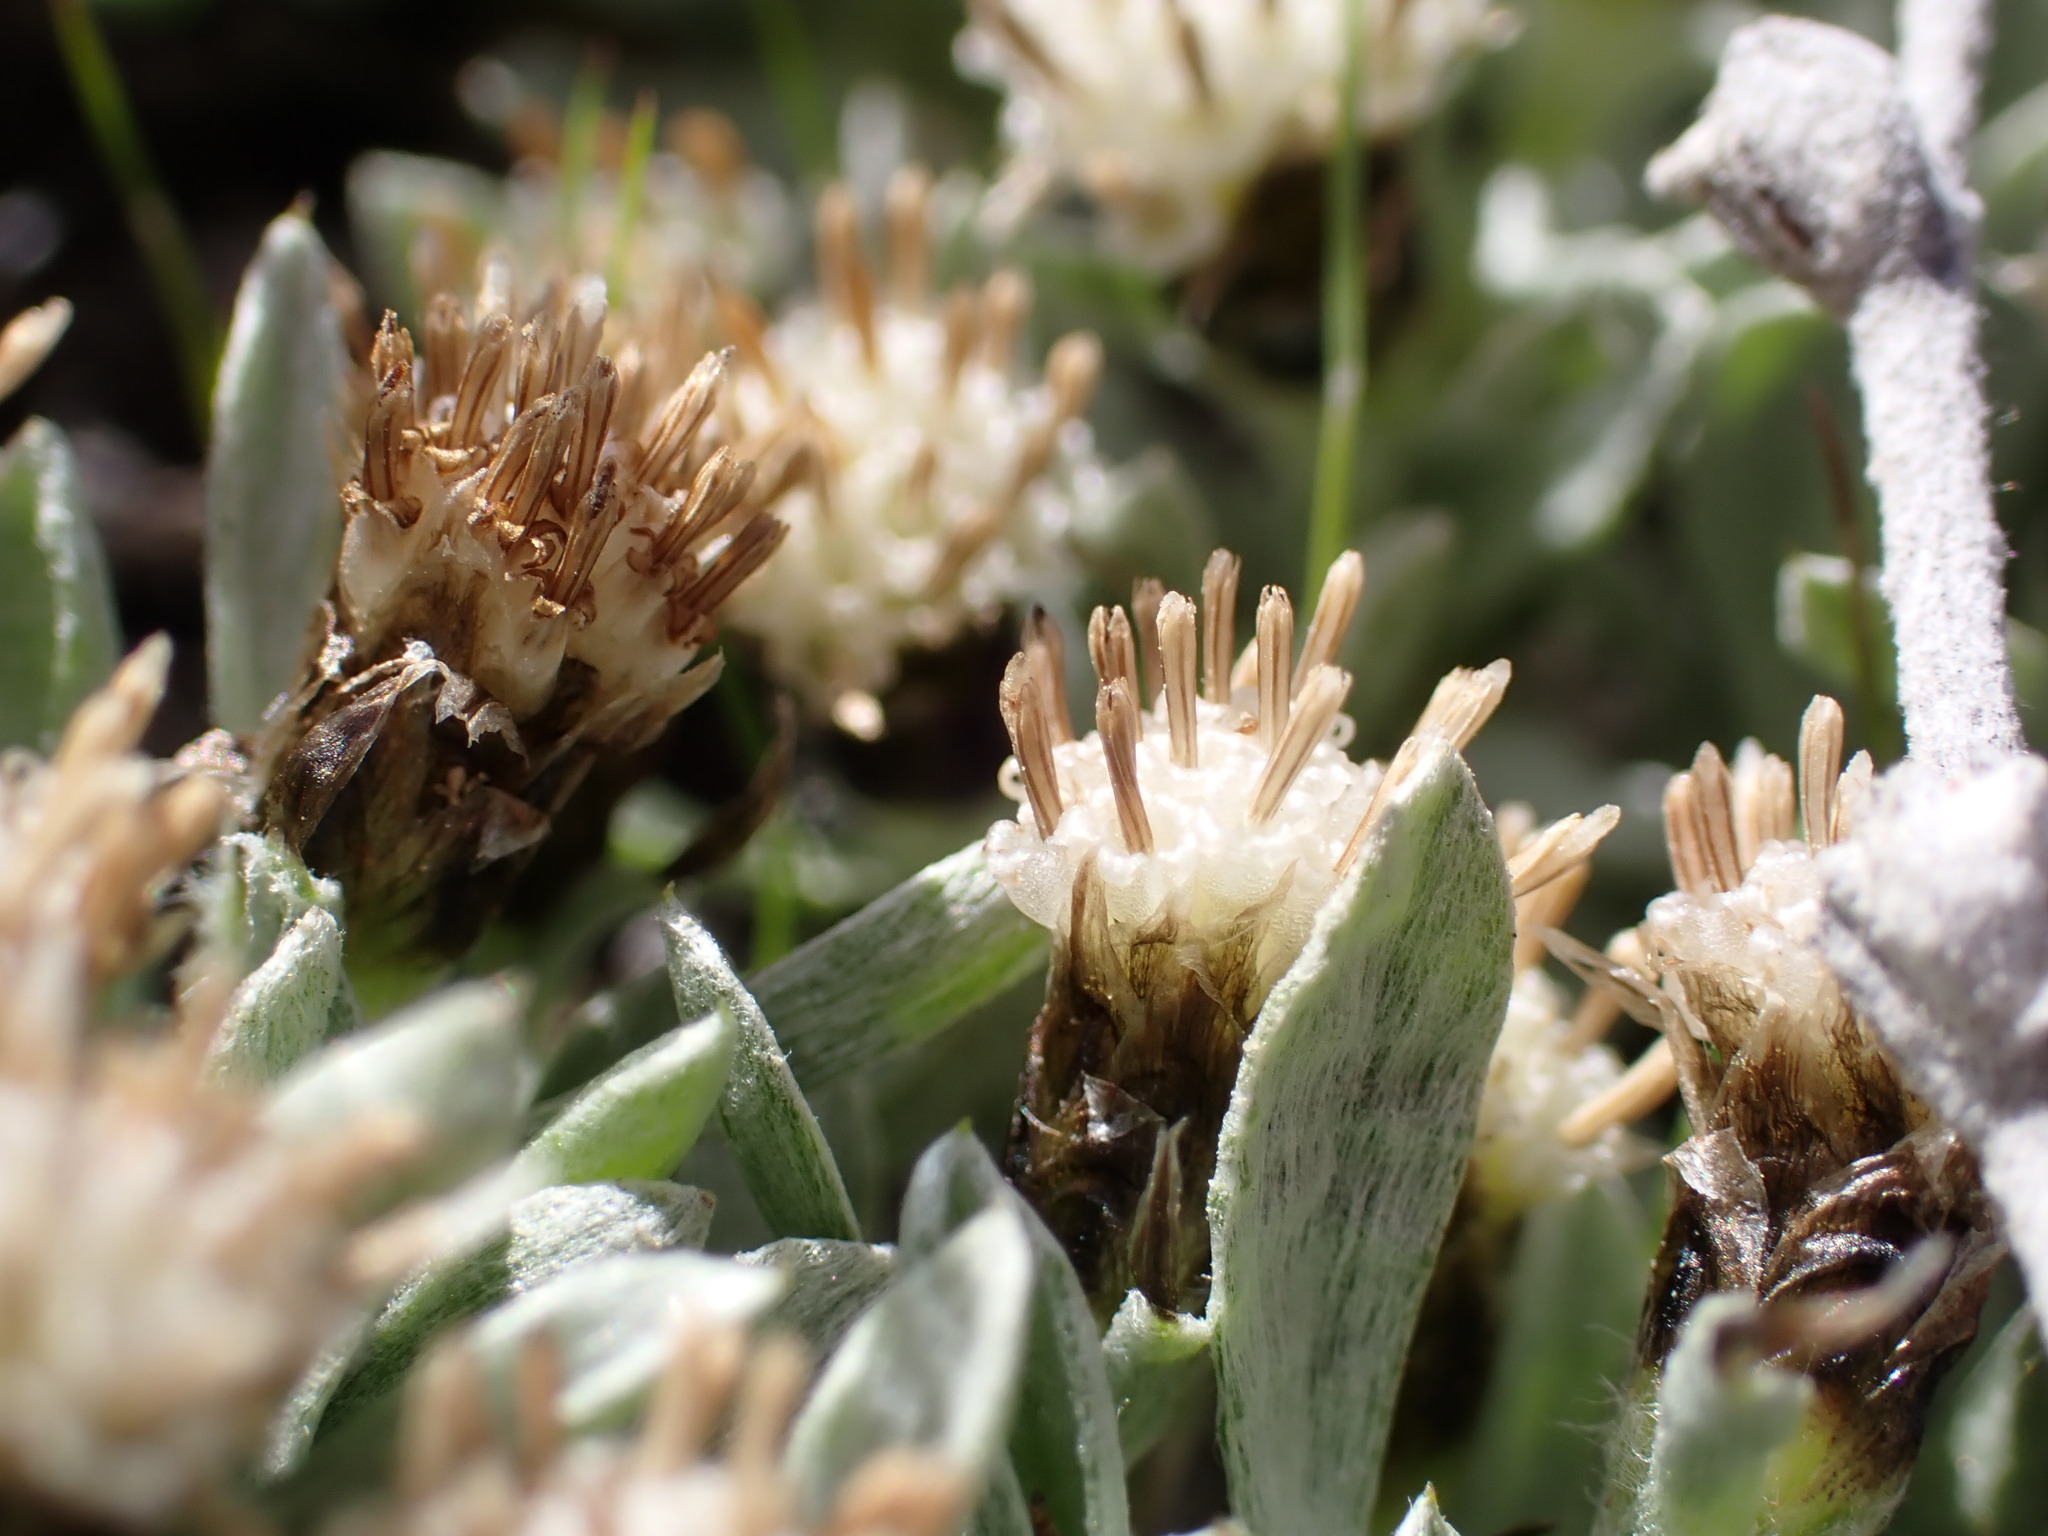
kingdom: Plantae
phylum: Tracheophyta
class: Magnoliopsida
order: Asterales
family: Asteraceae
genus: Antennaria
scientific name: Antennaria dimorpha
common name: Cushion pussytoes
